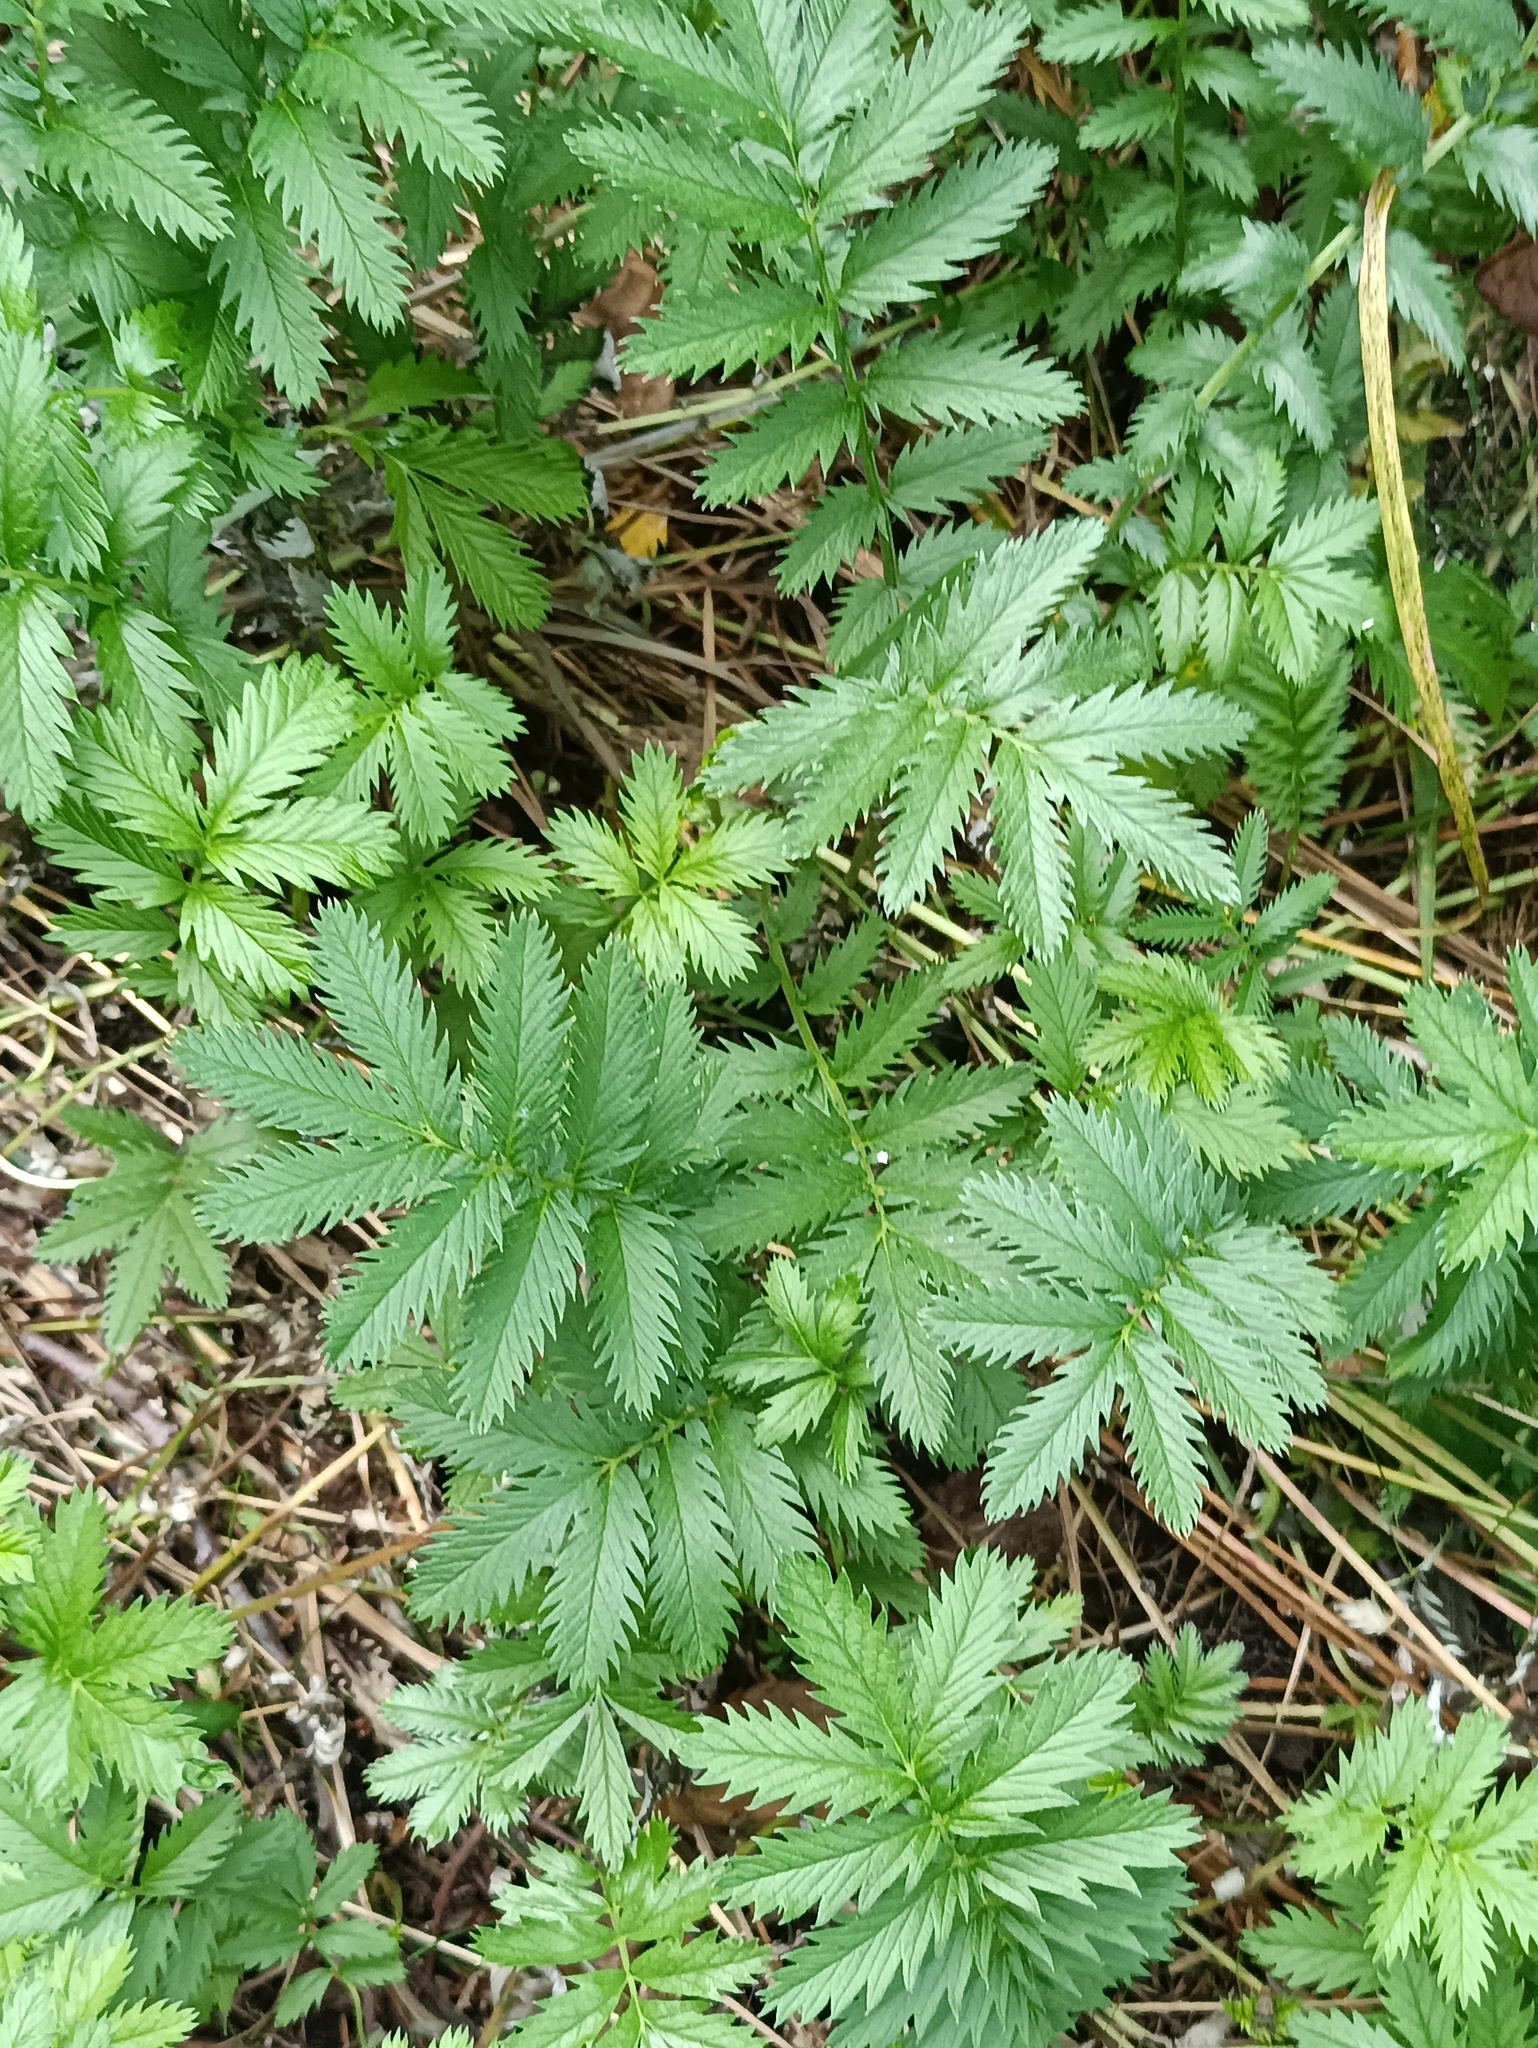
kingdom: Plantae
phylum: Tracheophyta
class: Magnoliopsida
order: Rosales
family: Rosaceae
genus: Argentina
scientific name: Argentina anserina
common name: Common silverweed
